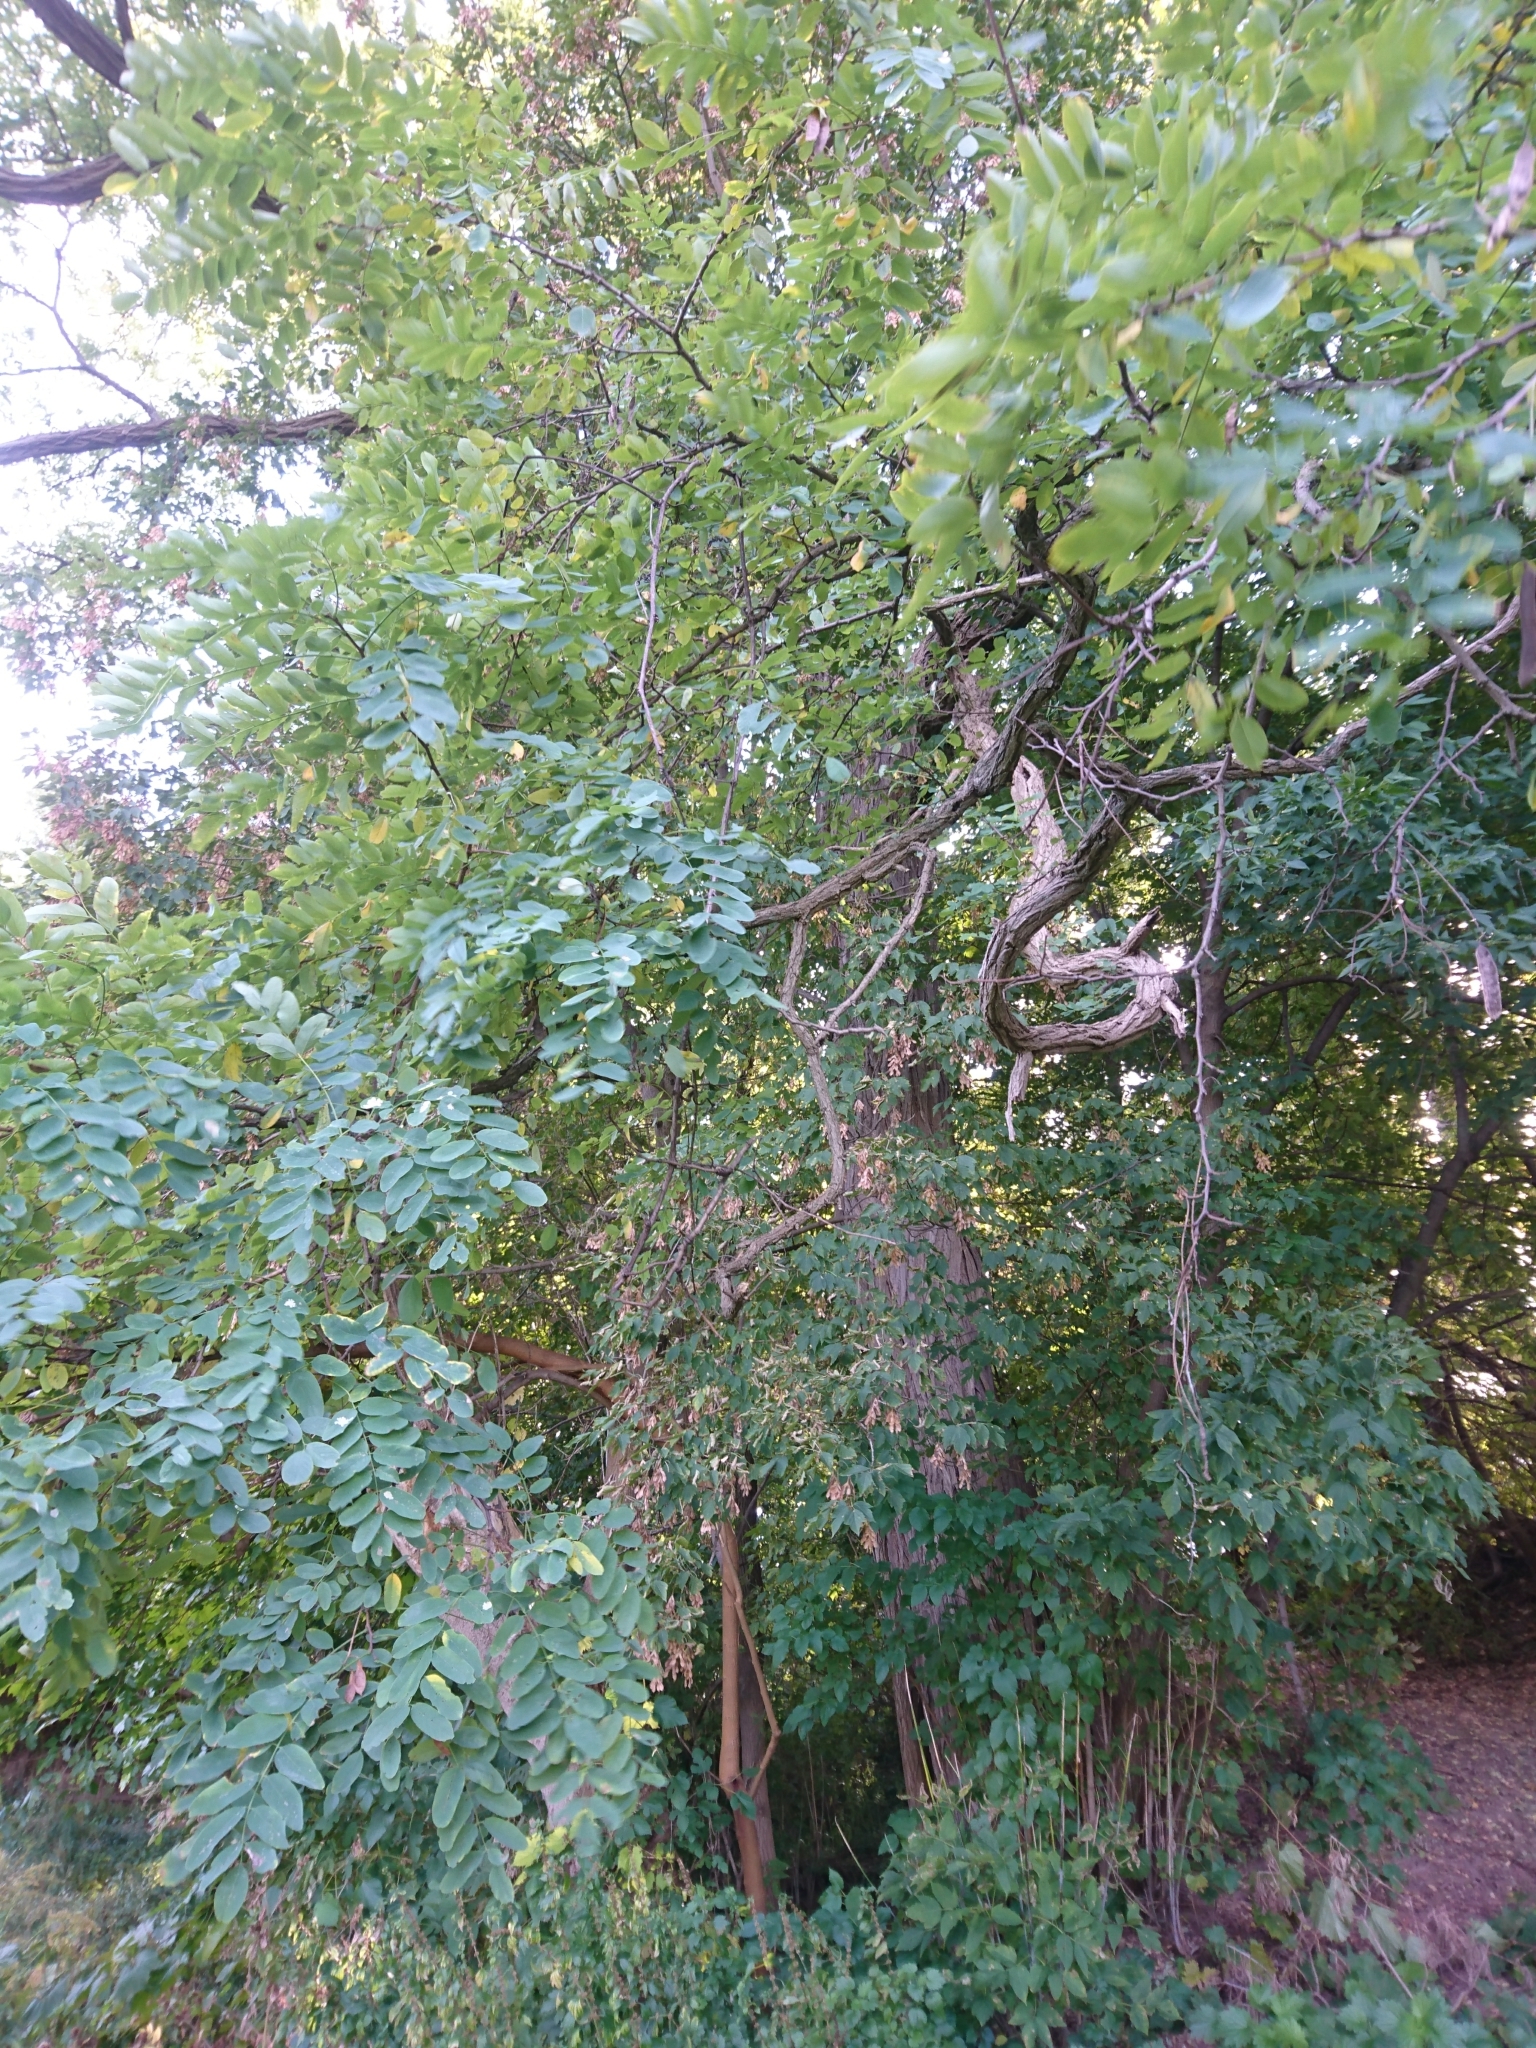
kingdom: Plantae
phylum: Tracheophyta
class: Magnoliopsida
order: Fabales
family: Fabaceae
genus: Robinia
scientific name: Robinia pseudoacacia
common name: Black locust
